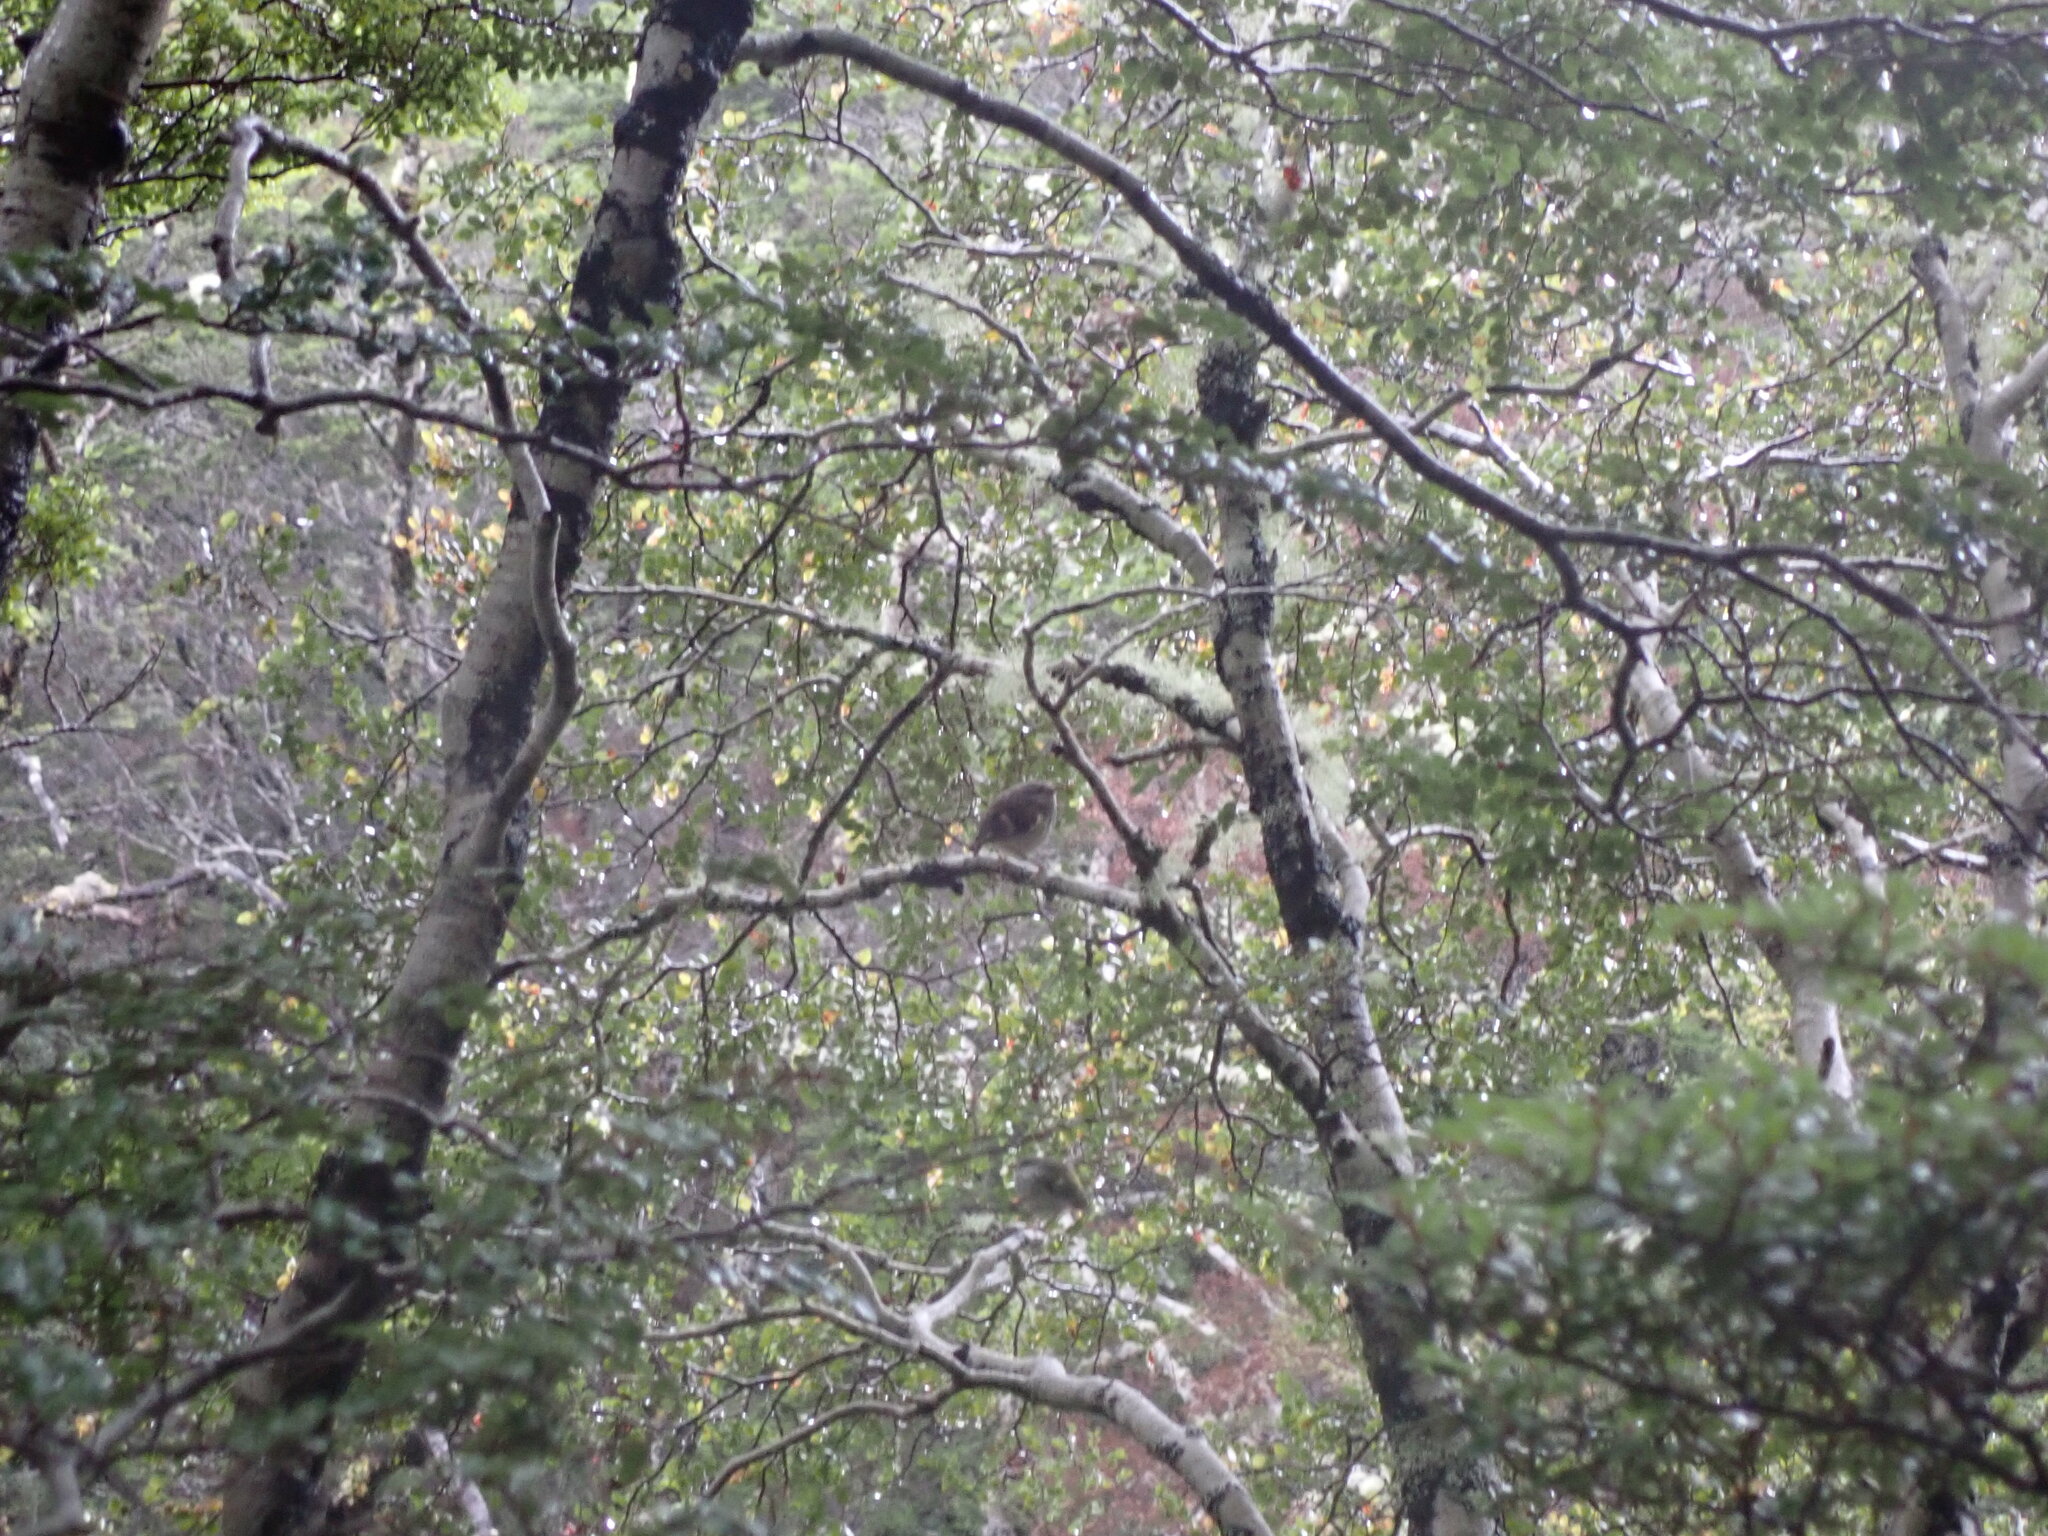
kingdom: Animalia
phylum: Chordata
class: Aves
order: Passeriformes
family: Acanthisittidae
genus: Acanthisitta
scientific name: Acanthisitta chloris
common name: Rifleman
